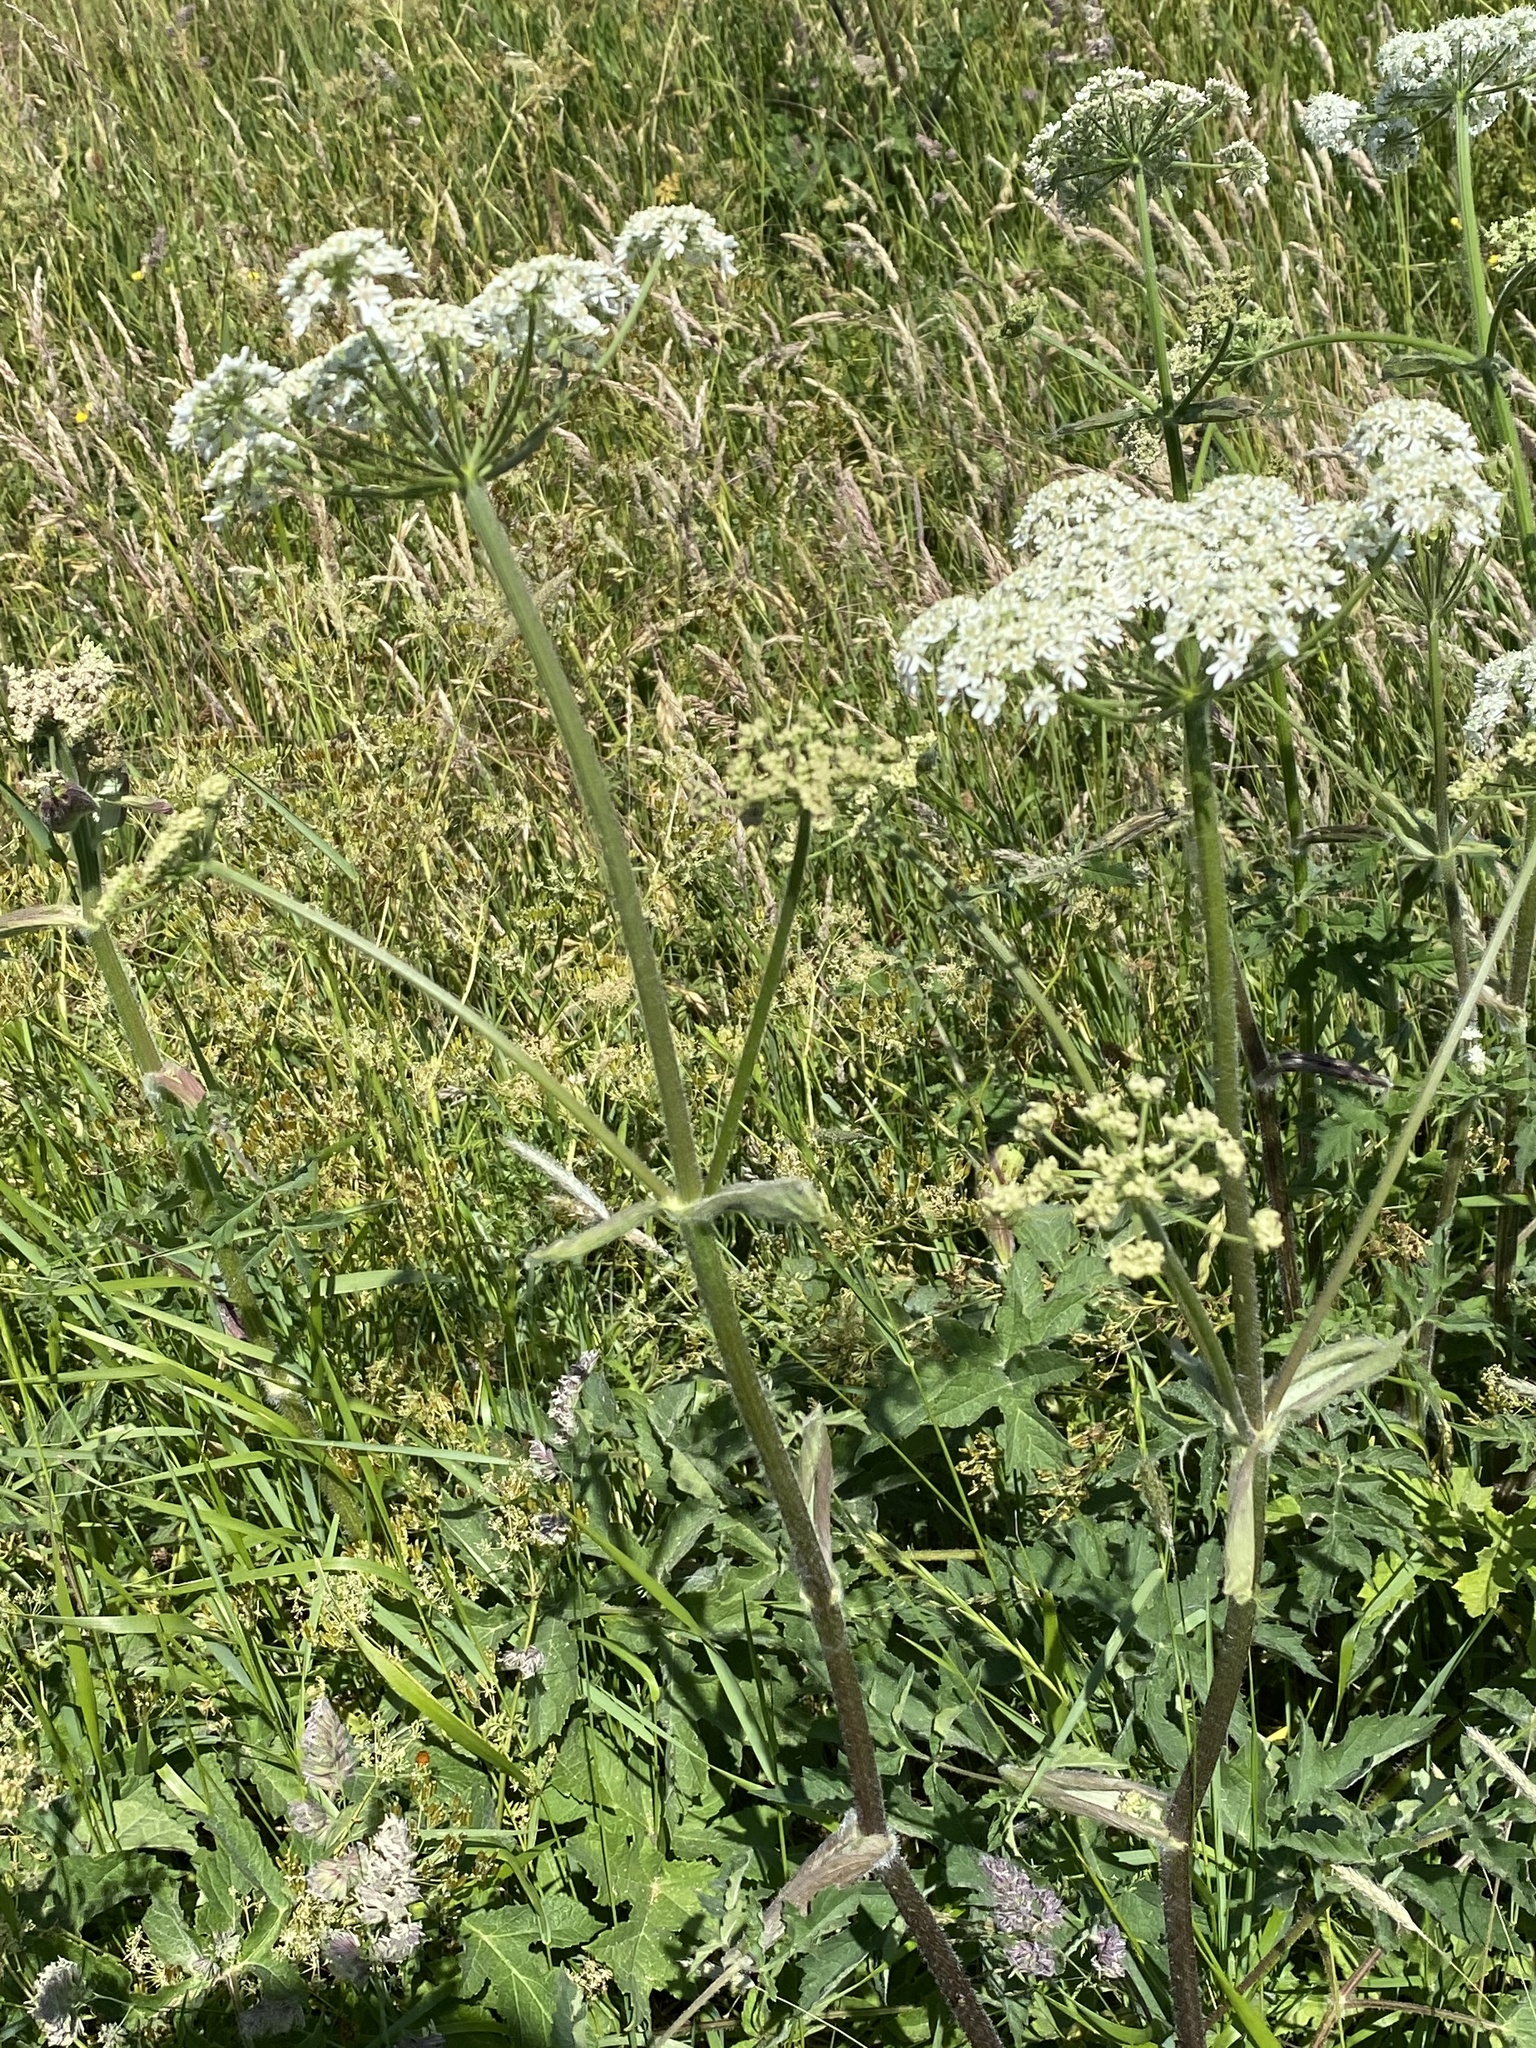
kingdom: Plantae
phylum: Tracheophyta
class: Magnoliopsida
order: Apiales
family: Apiaceae
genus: Heracleum
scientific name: Heracleum sphondylium
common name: Hogweed
